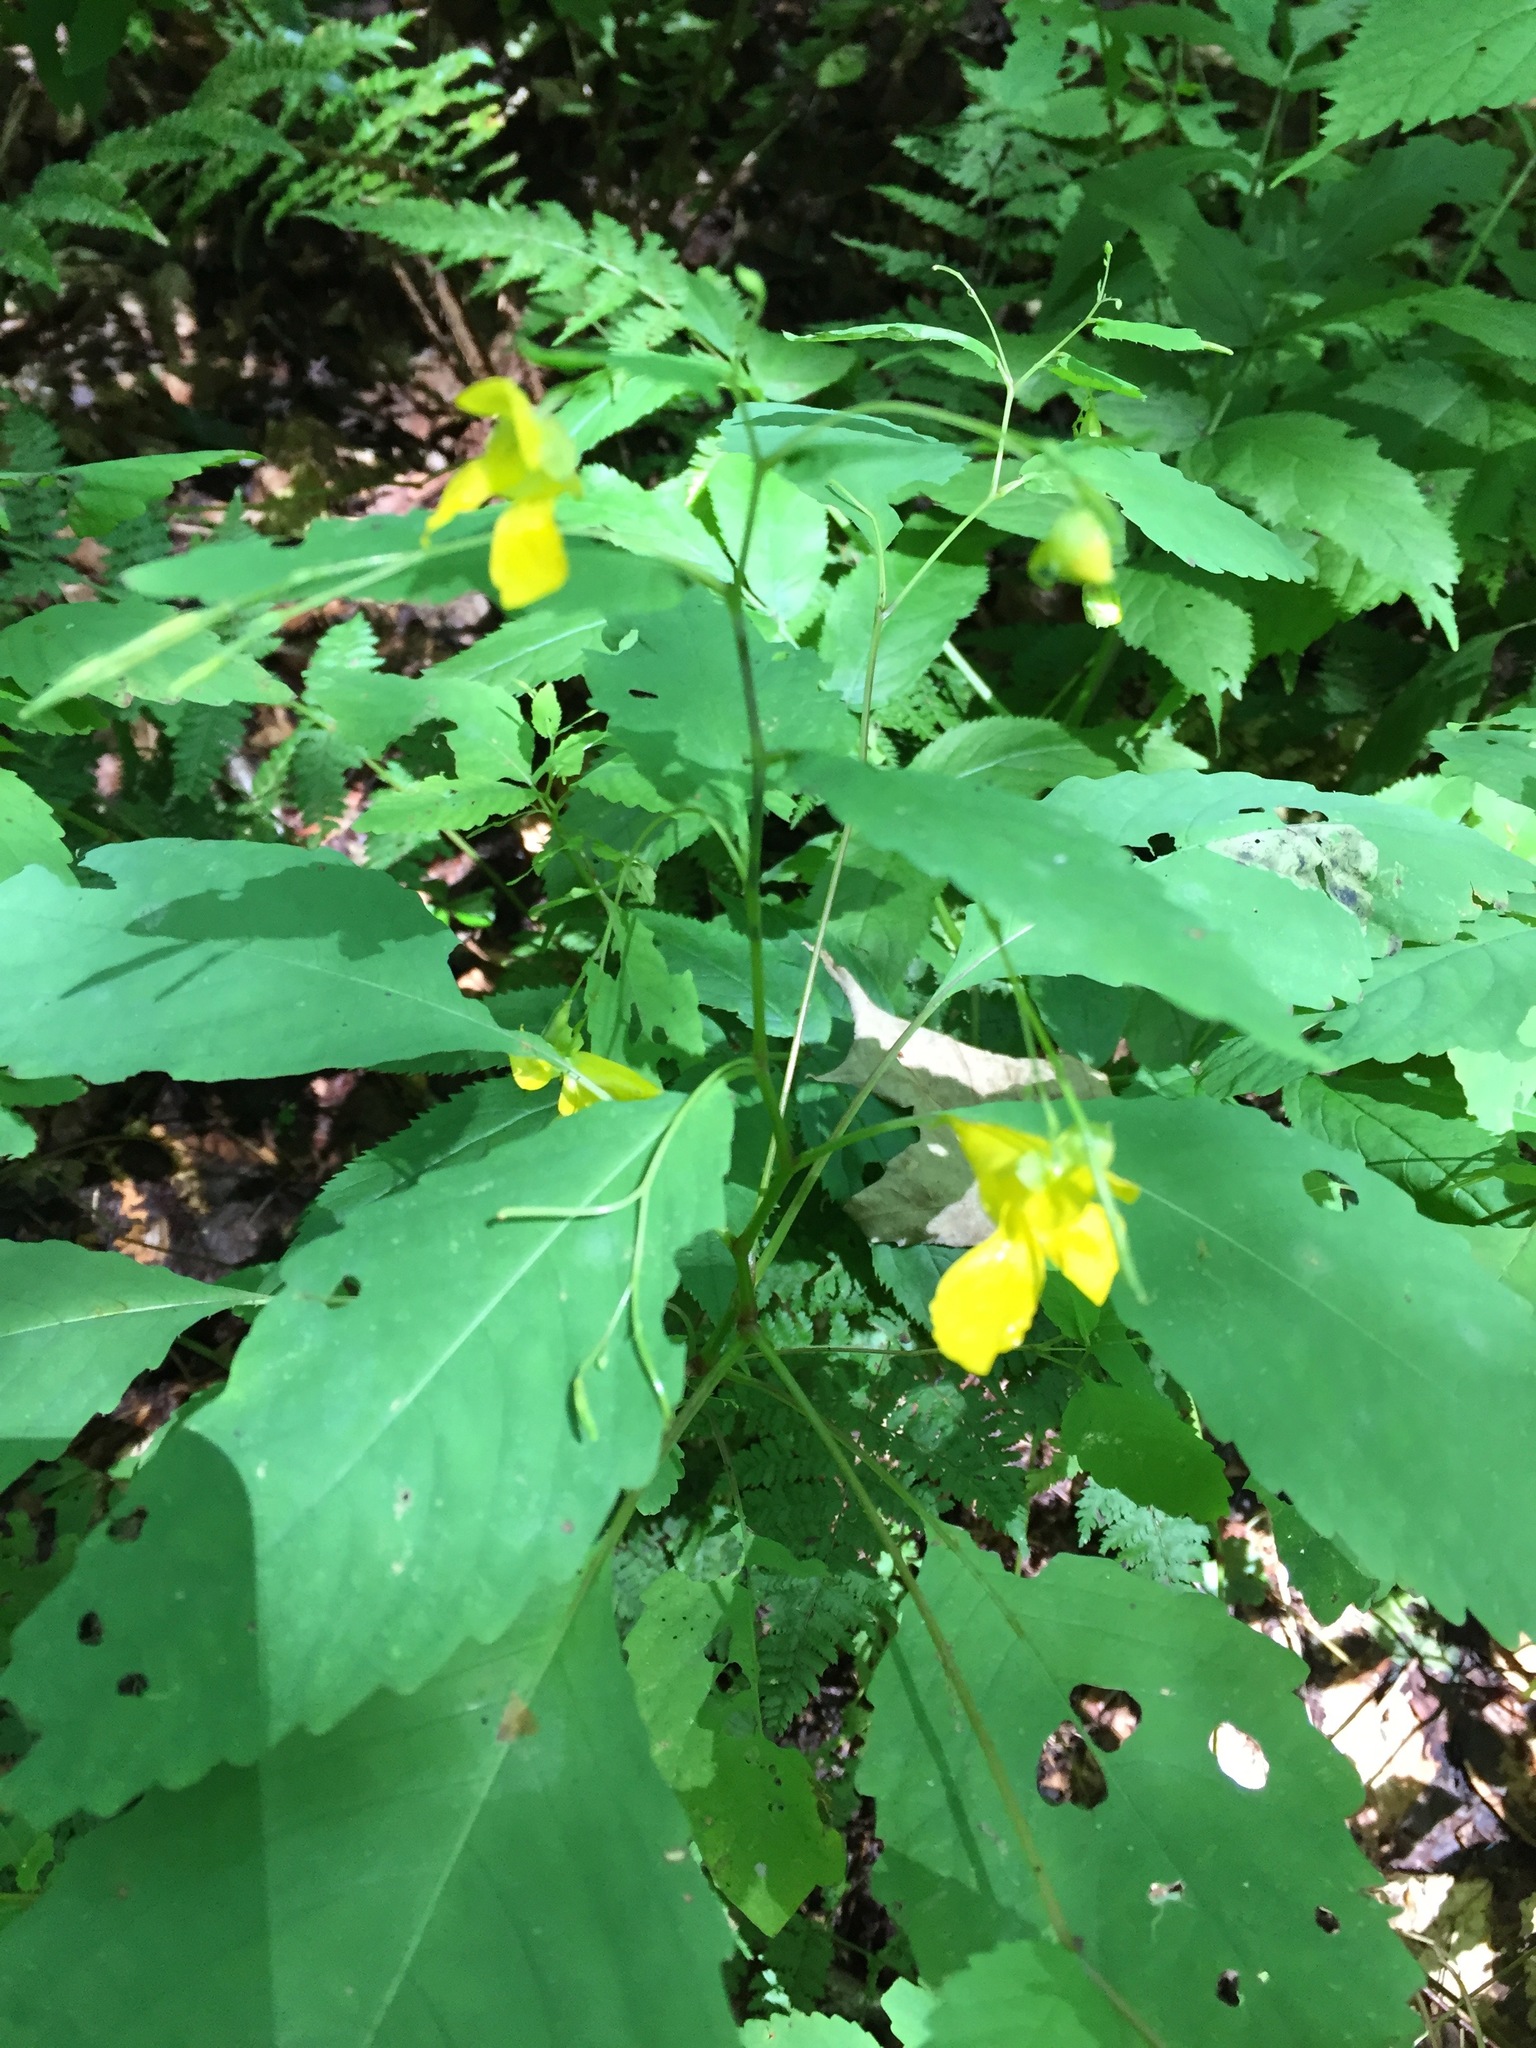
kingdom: Plantae
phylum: Tracheophyta
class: Magnoliopsida
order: Ericales
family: Balsaminaceae
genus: Impatiens
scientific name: Impatiens pallida
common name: Pale snapweed
